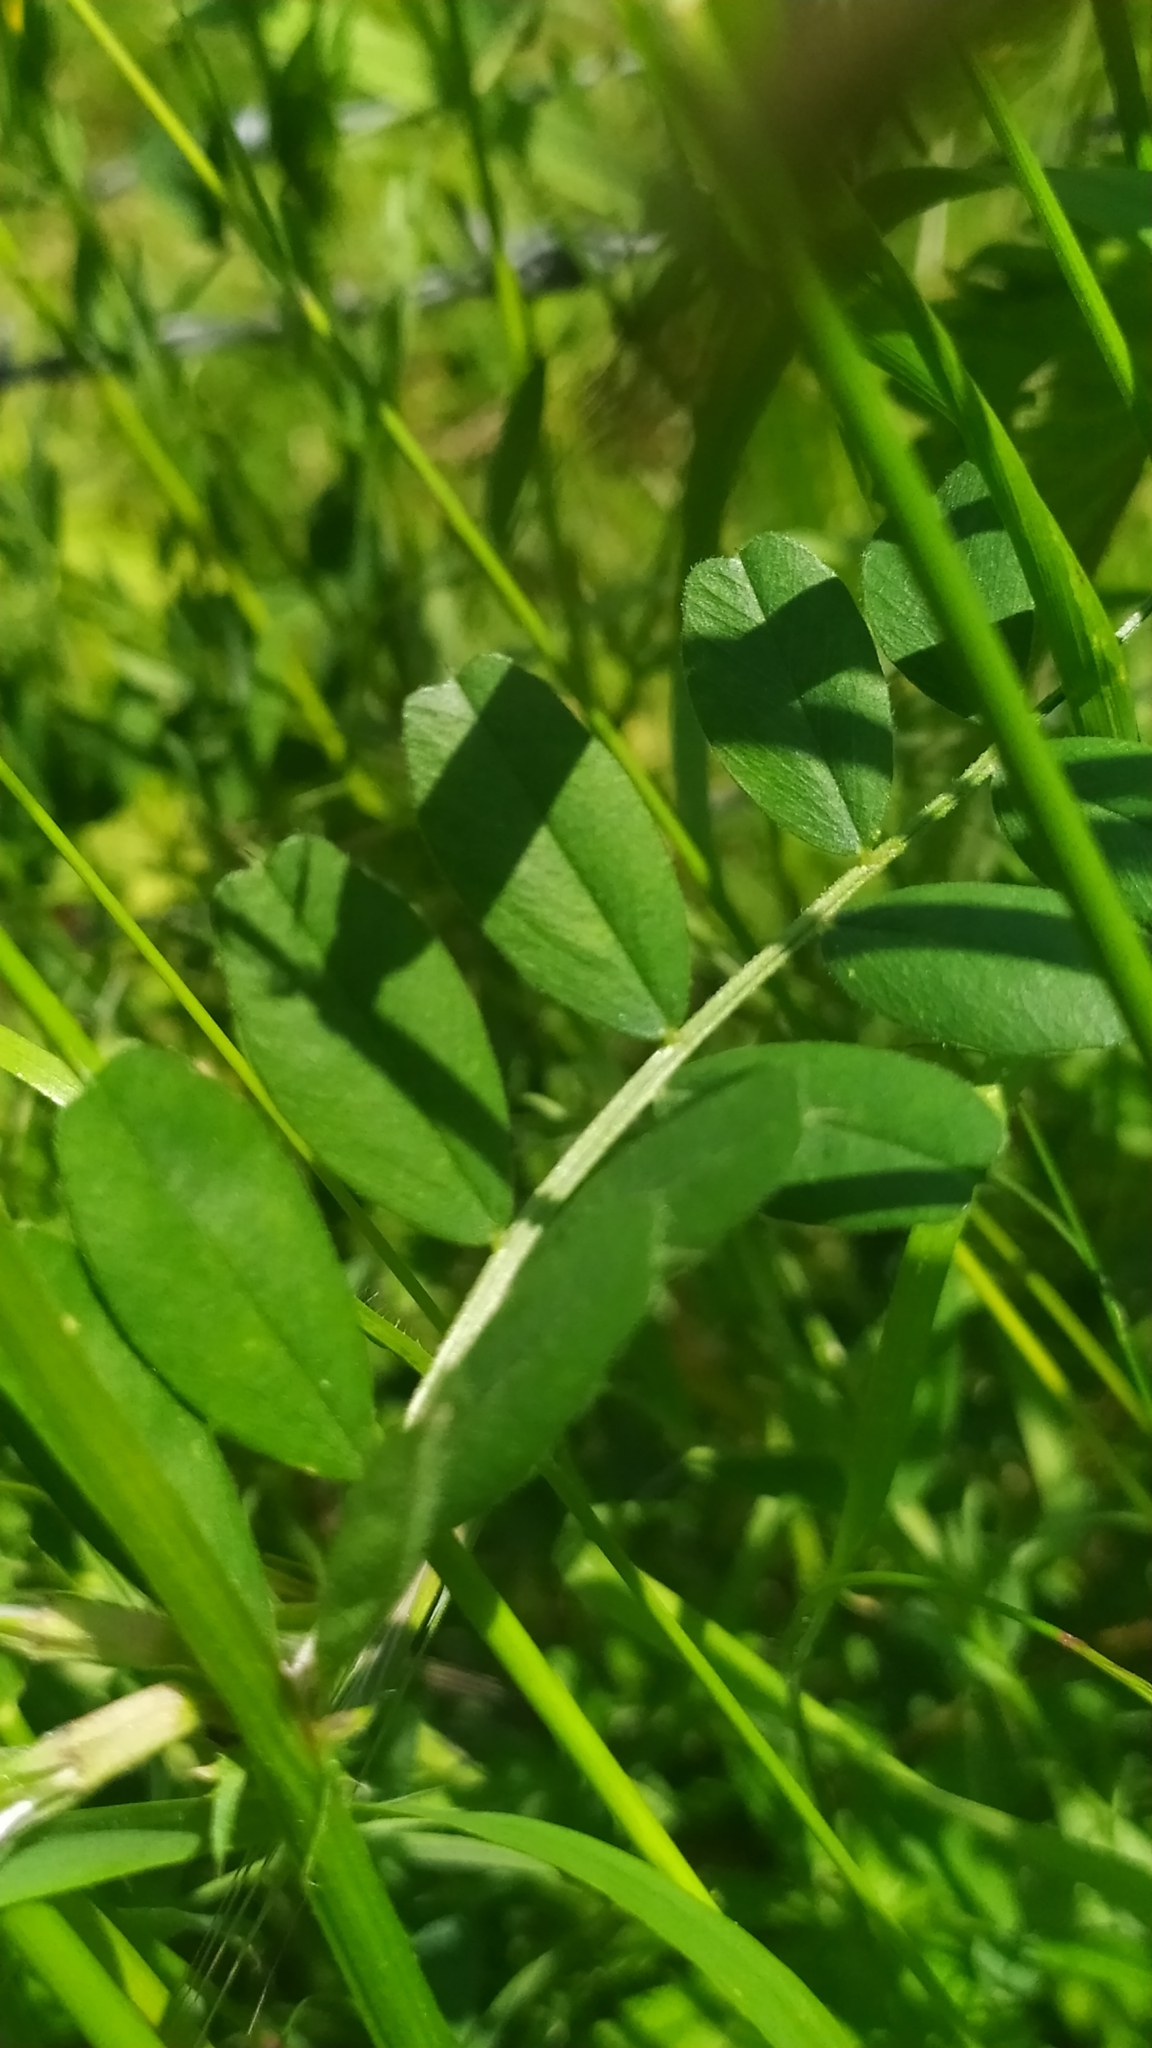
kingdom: Plantae
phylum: Tracheophyta
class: Magnoliopsida
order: Fabales
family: Fabaceae
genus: Vicia
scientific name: Vicia sativa
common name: Garden vetch
